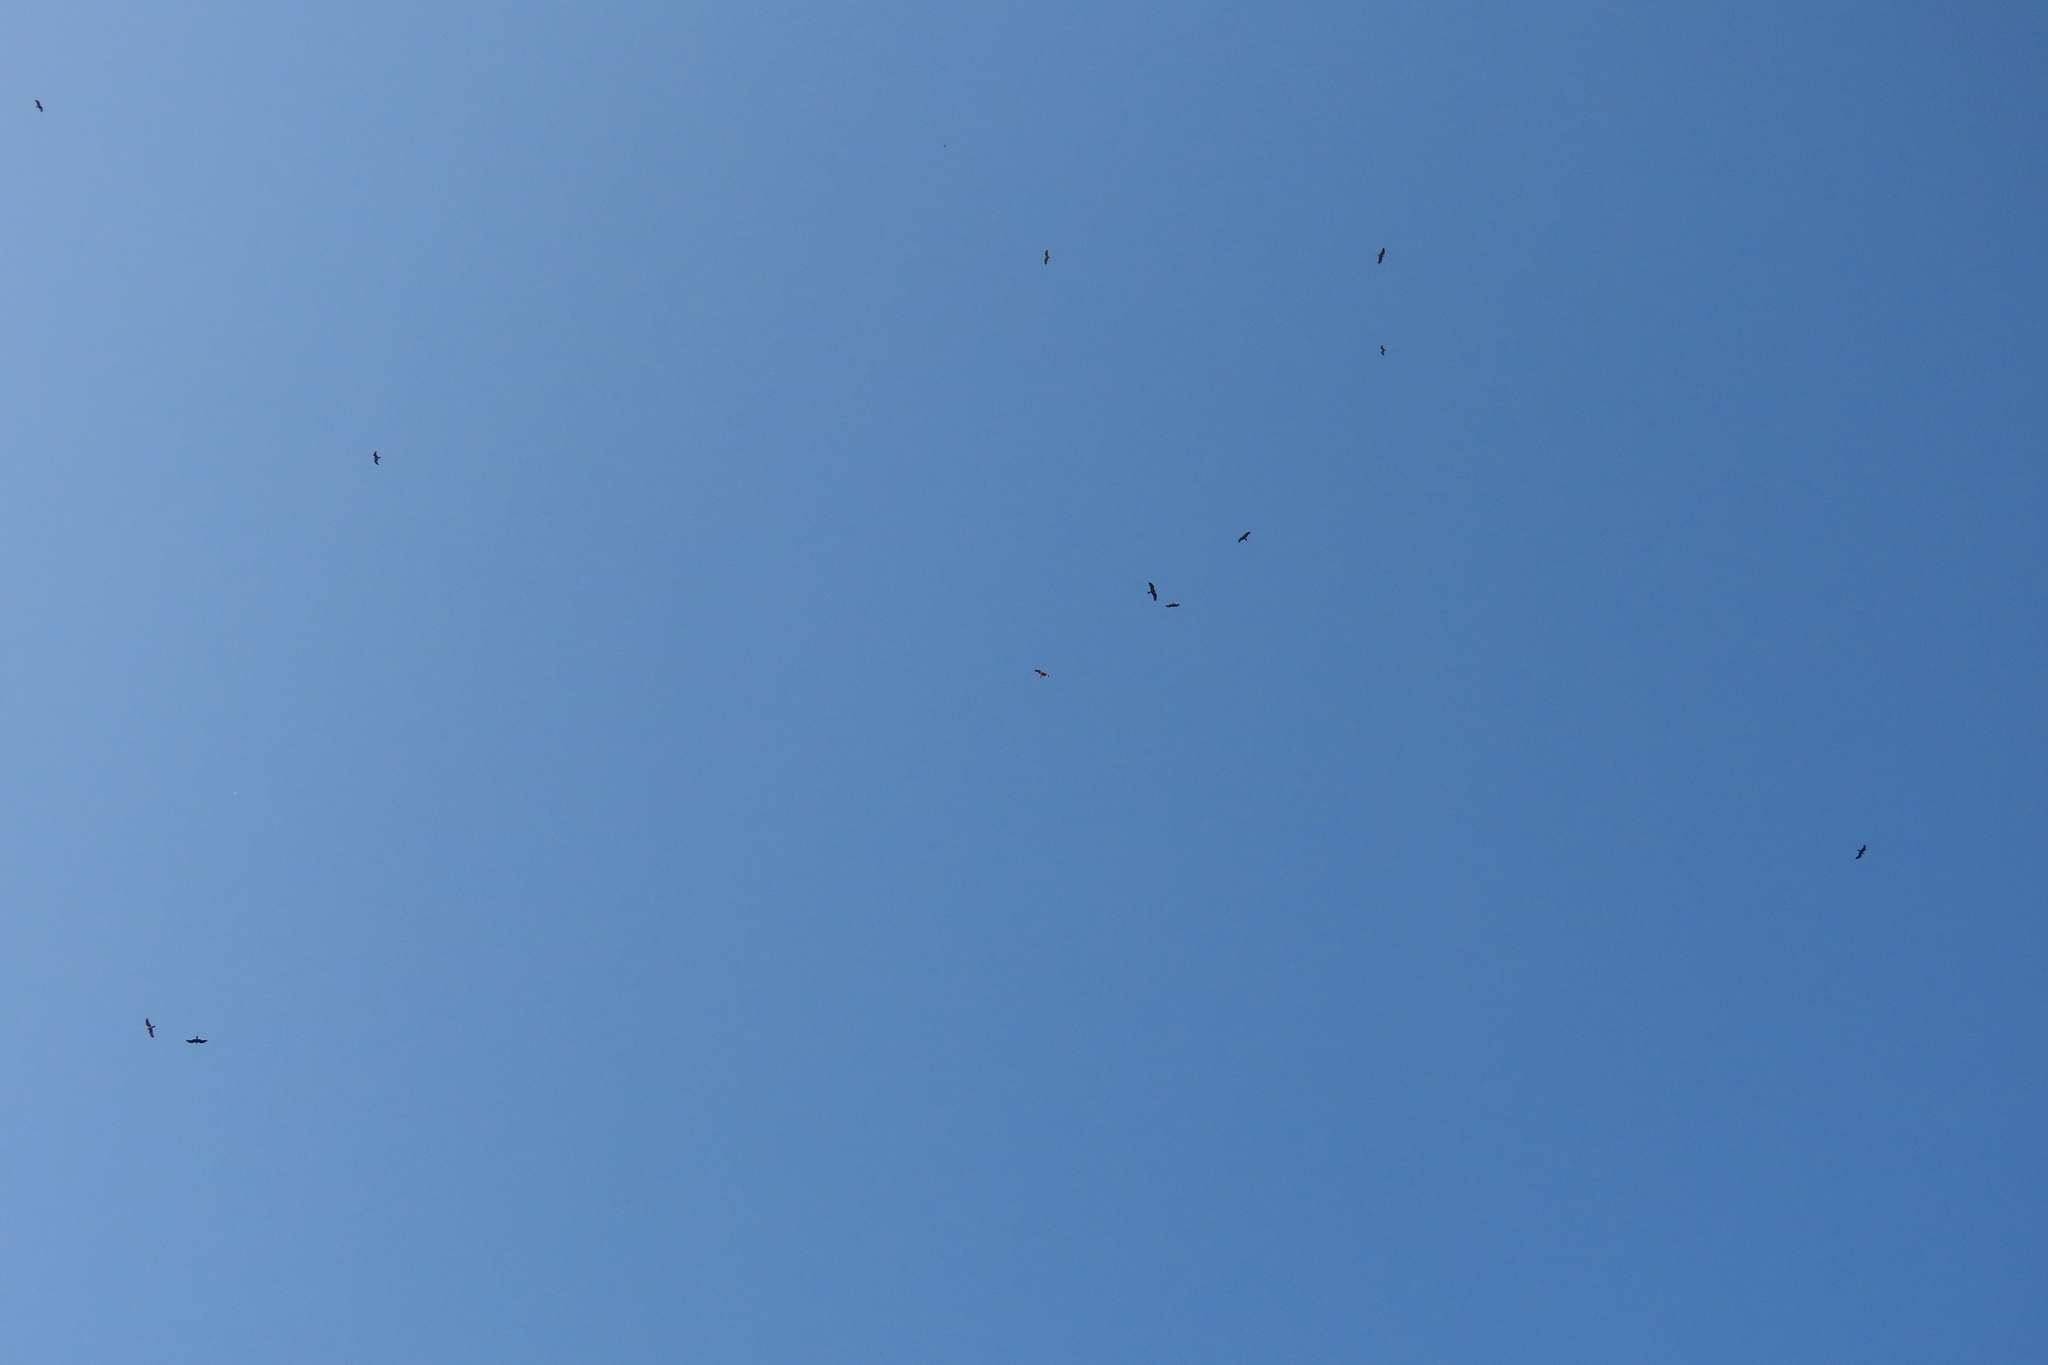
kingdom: Animalia
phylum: Chordata
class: Aves
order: Accipitriformes
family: Accipitridae
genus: Milvus
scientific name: Milvus migrans
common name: Black kite
